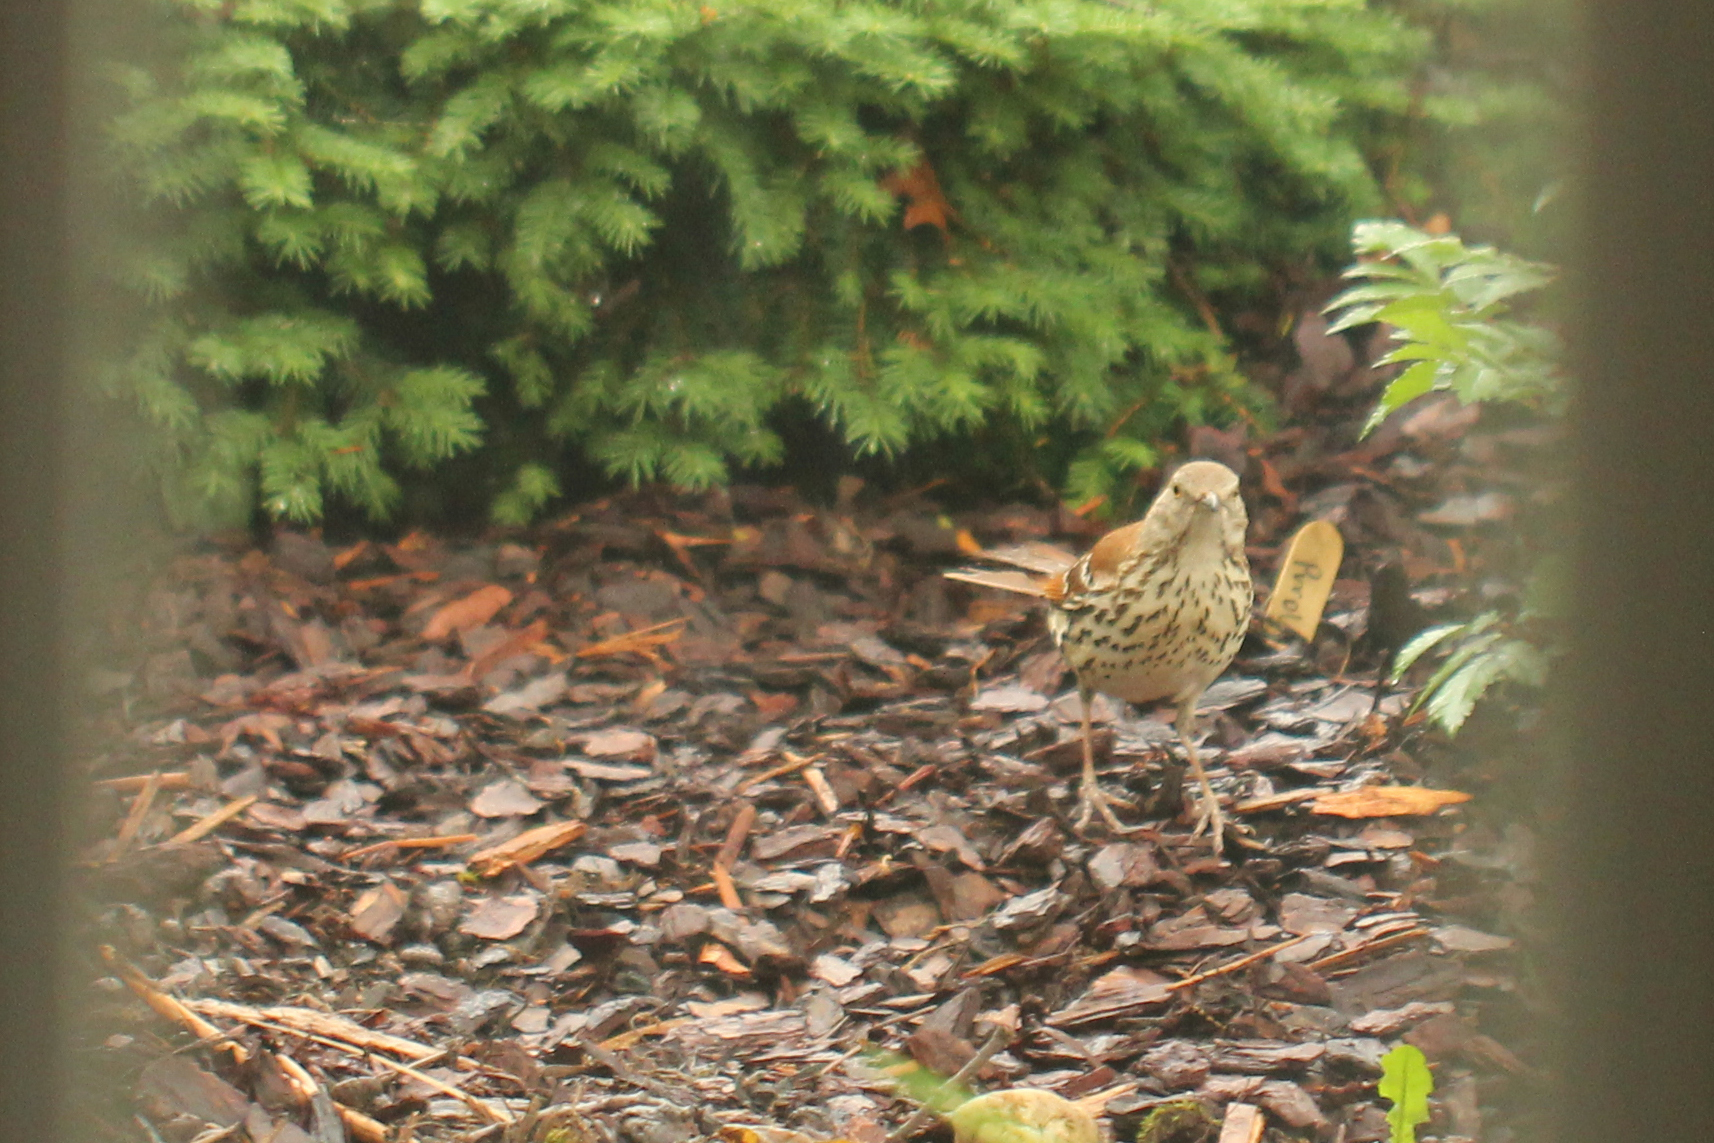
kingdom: Animalia
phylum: Chordata
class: Aves
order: Passeriformes
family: Mimidae
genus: Toxostoma
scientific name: Toxostoma rufum
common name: Brown thrasher
